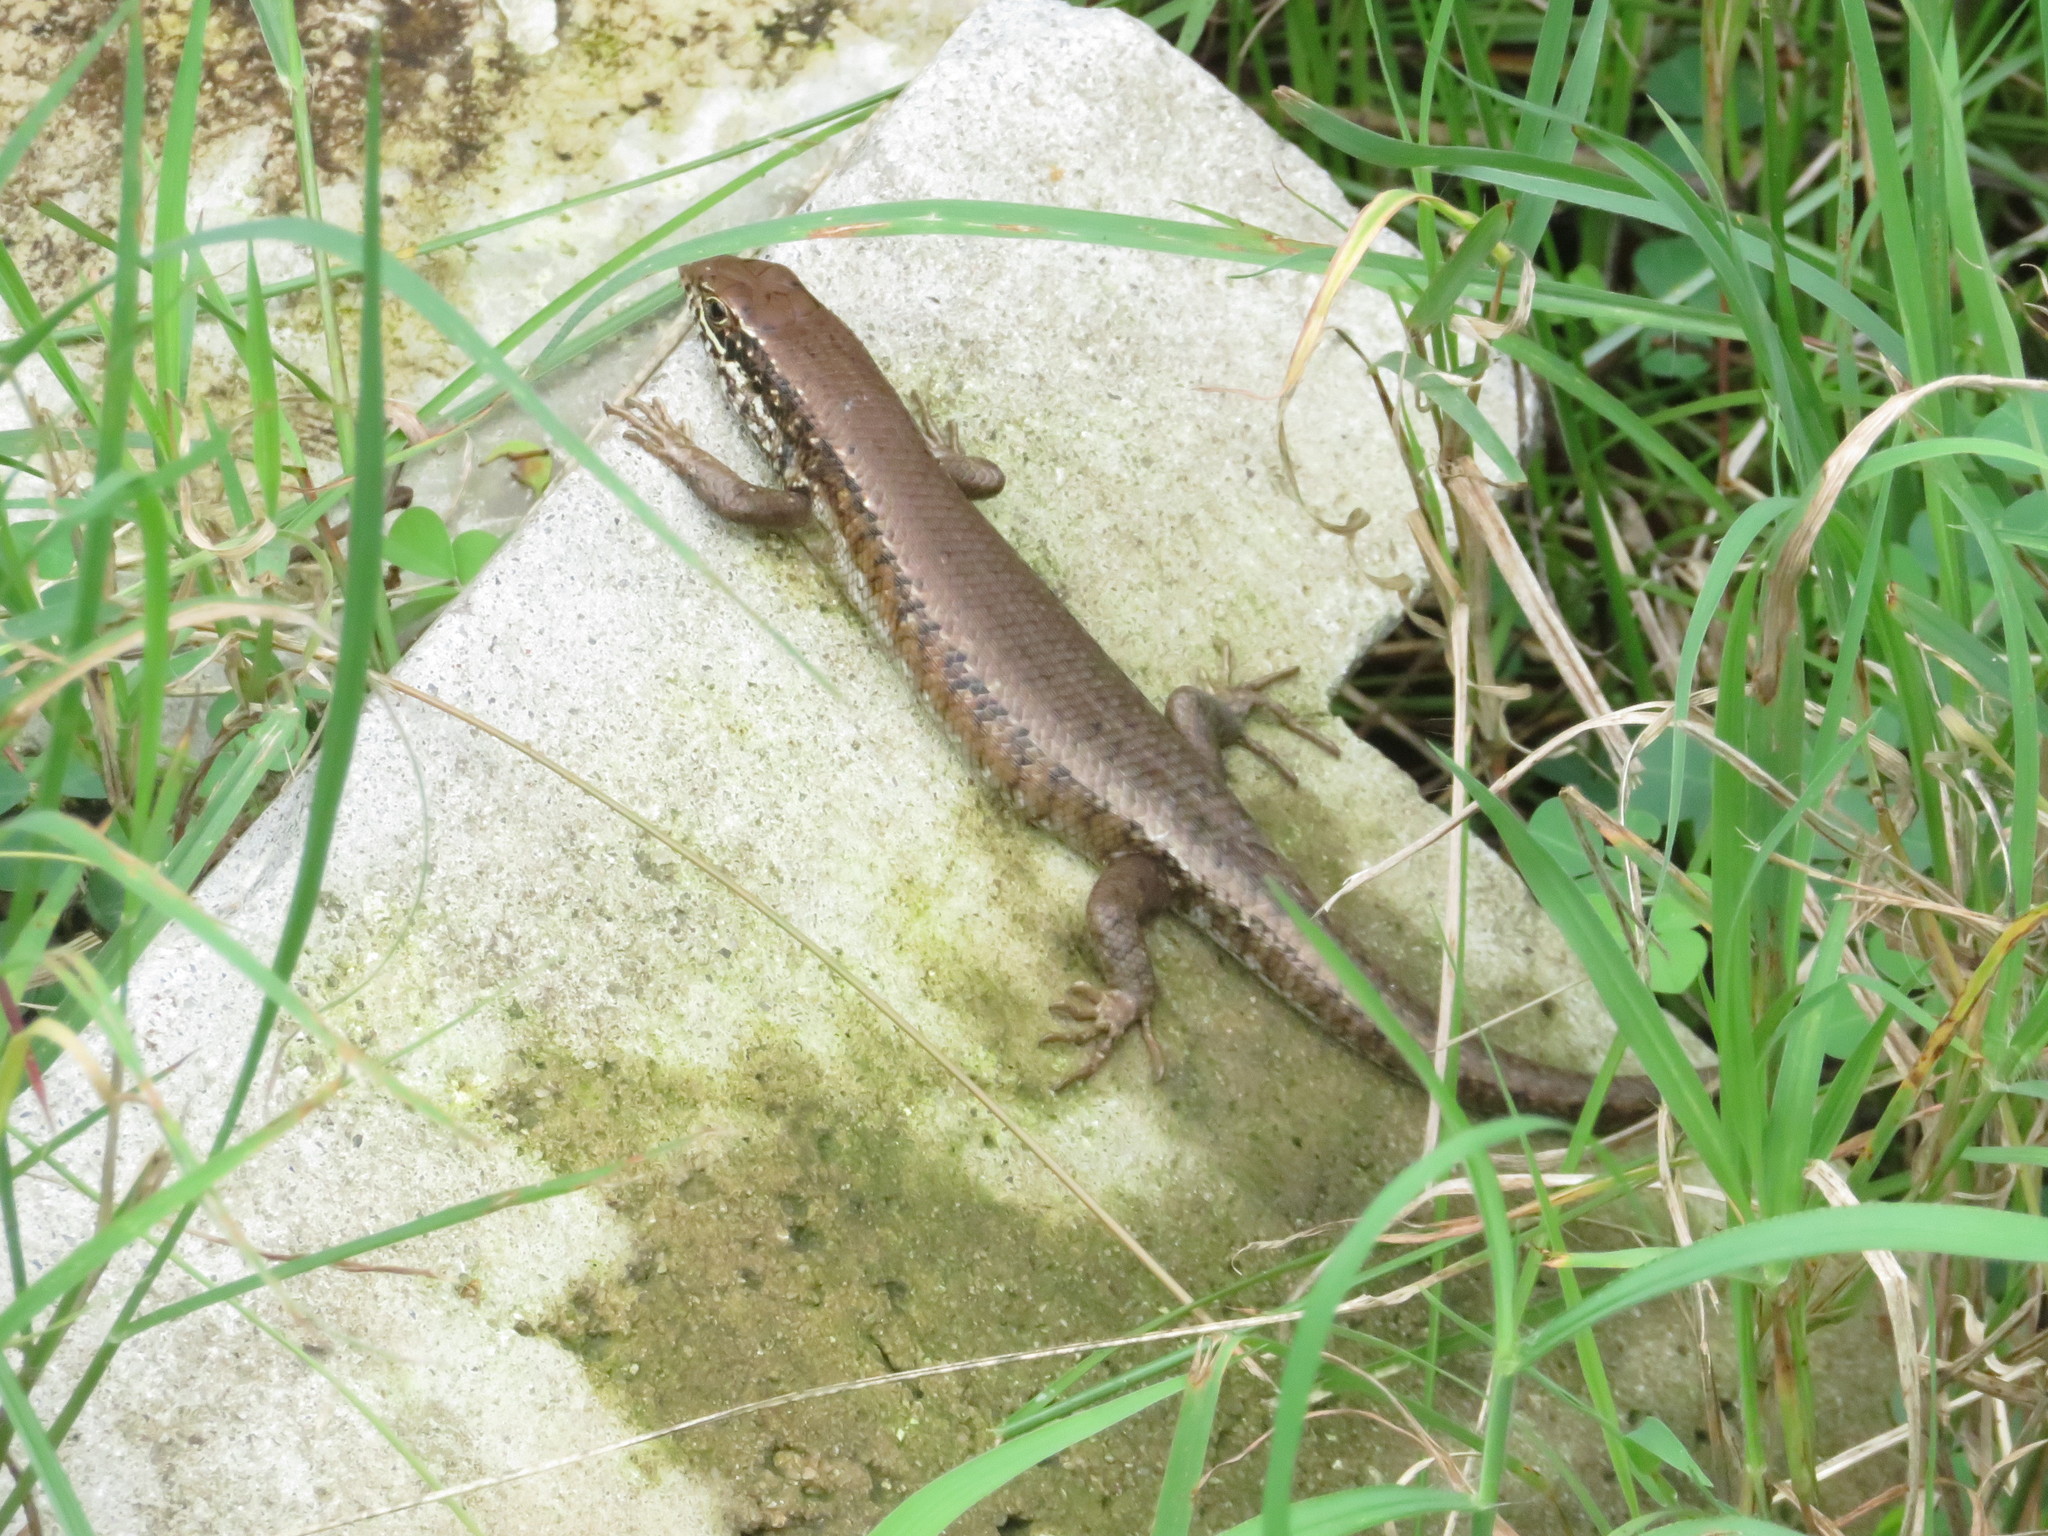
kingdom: Animalia
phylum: Chordata
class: Squamata
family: Scincidae
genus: Trachylepis
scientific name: Trachylepis maculilabris
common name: Speckle-lipped mabuya
